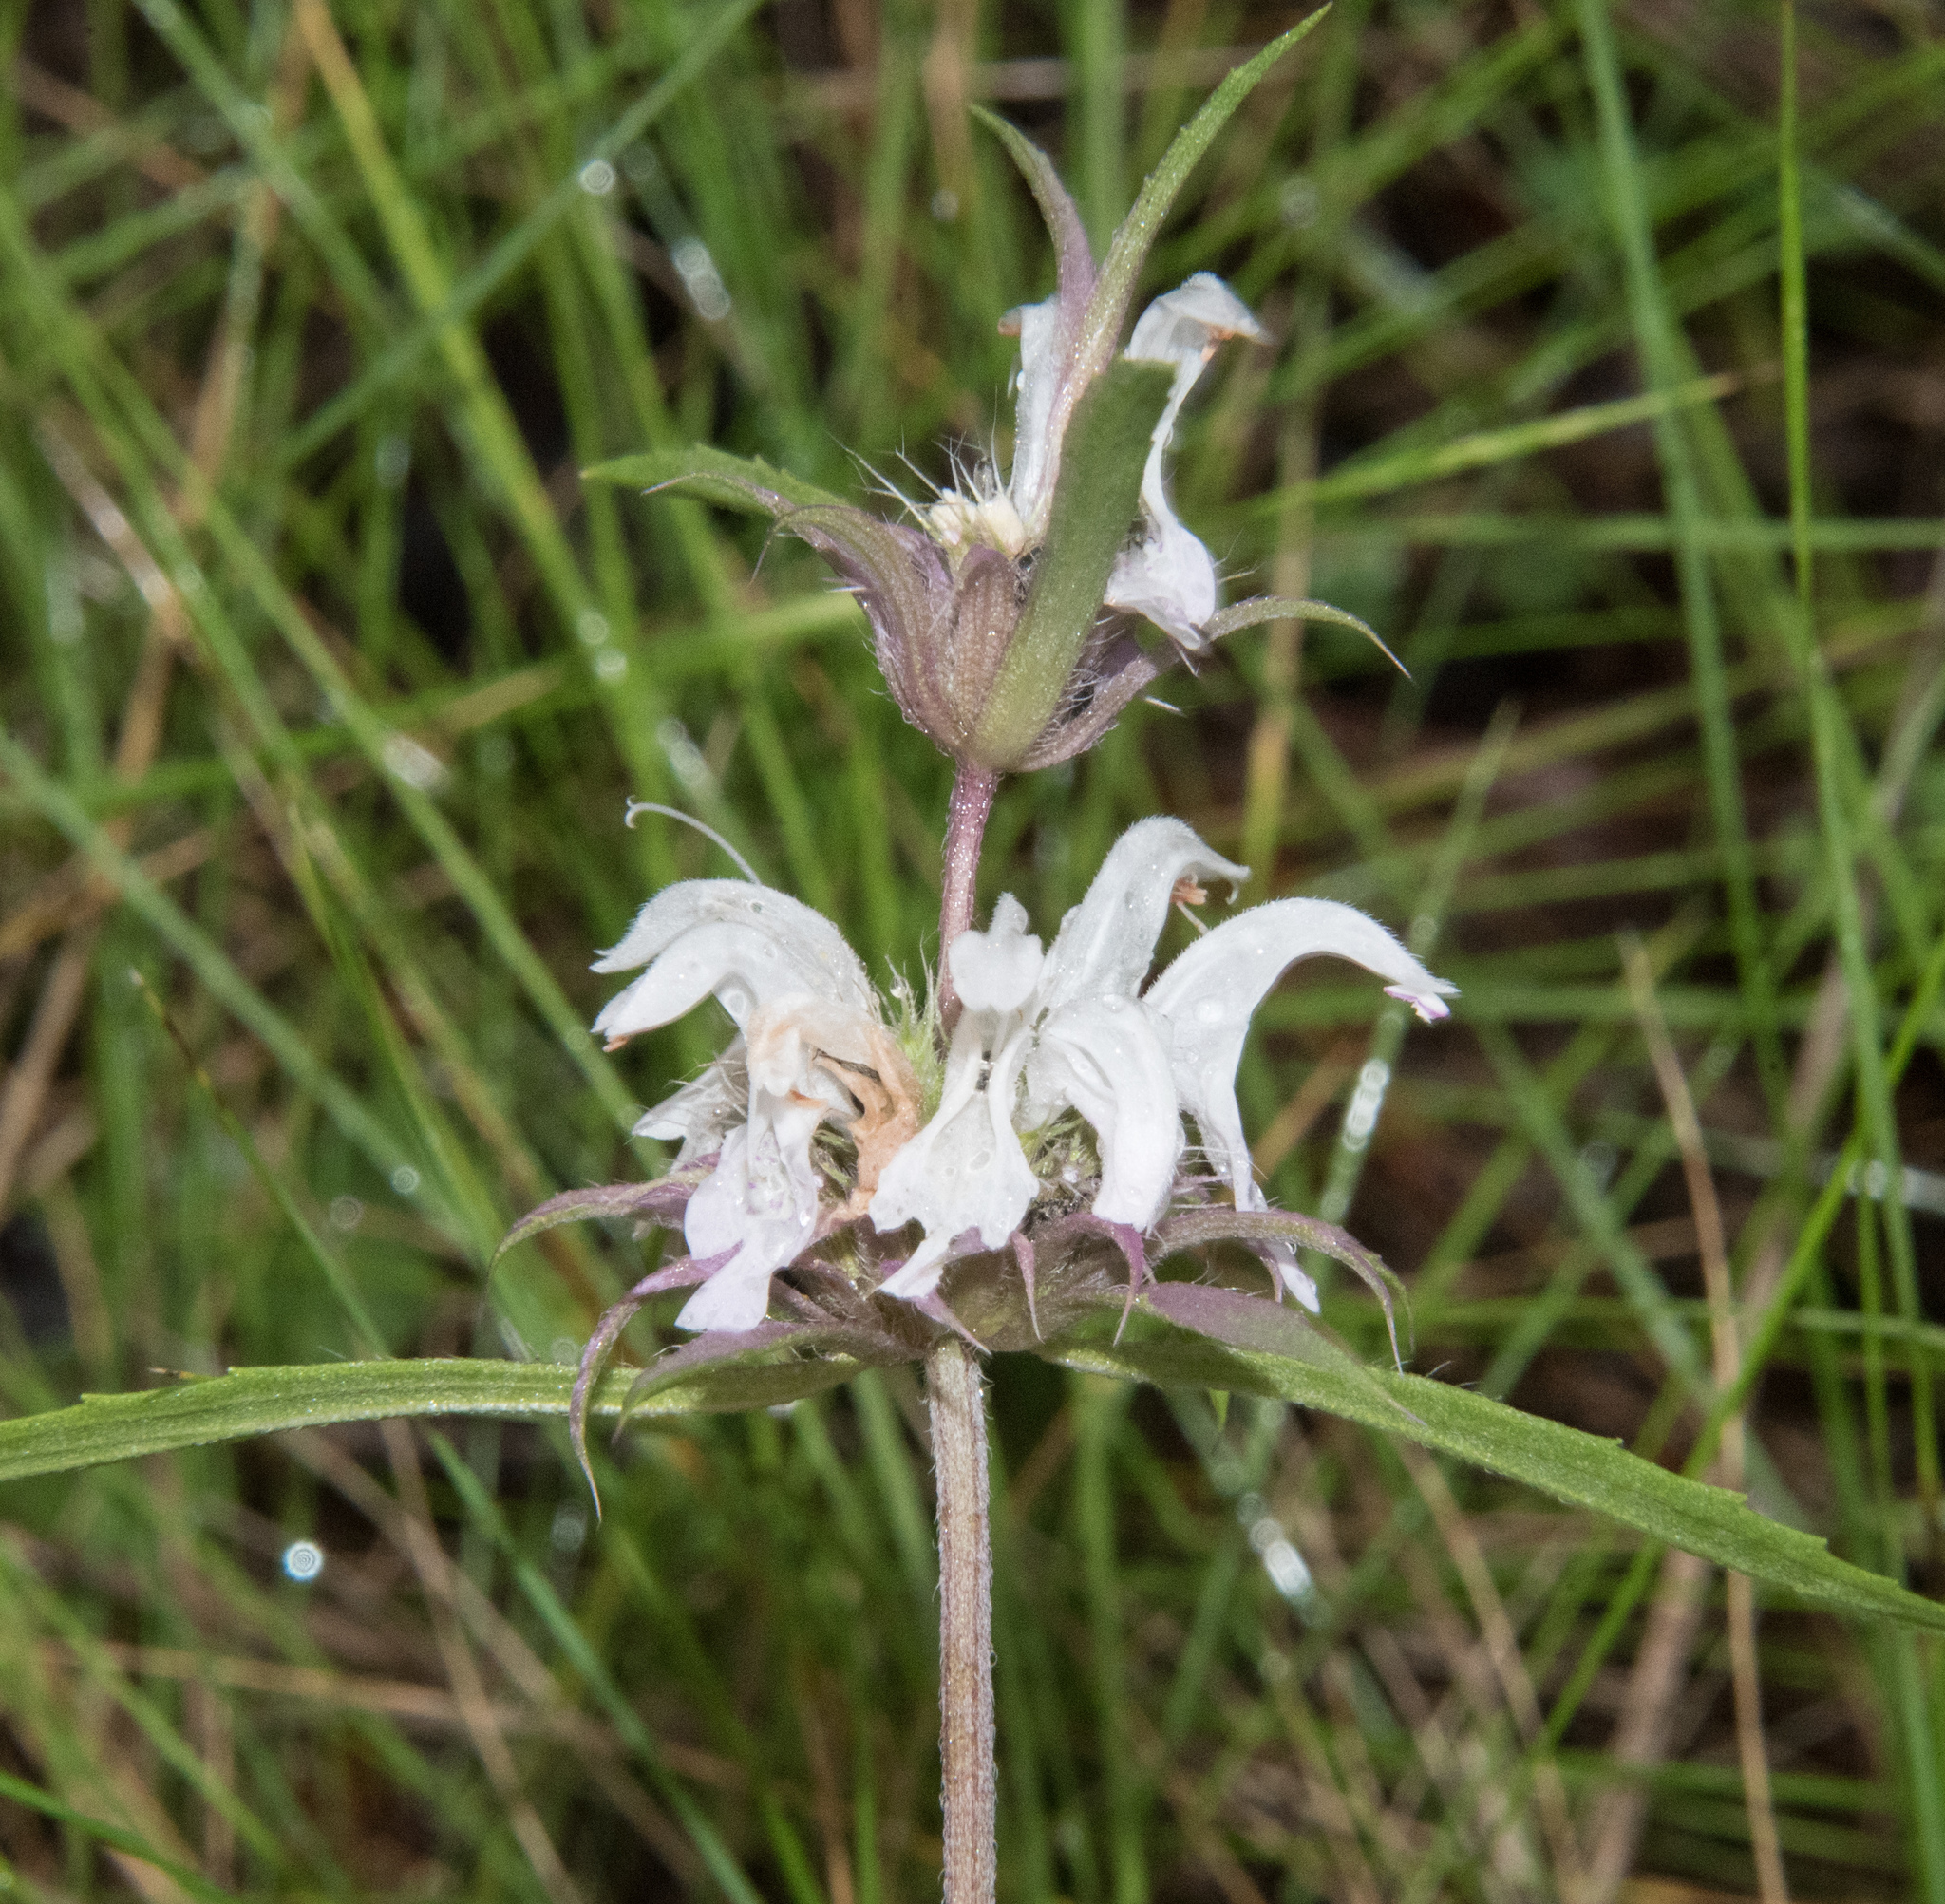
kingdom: Plantae
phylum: Tracheophyta
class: Magnoliopsida
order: Lamiales
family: Lamiaceae
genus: Monarda
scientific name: Monarda citriodora
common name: Lemon beebalm
